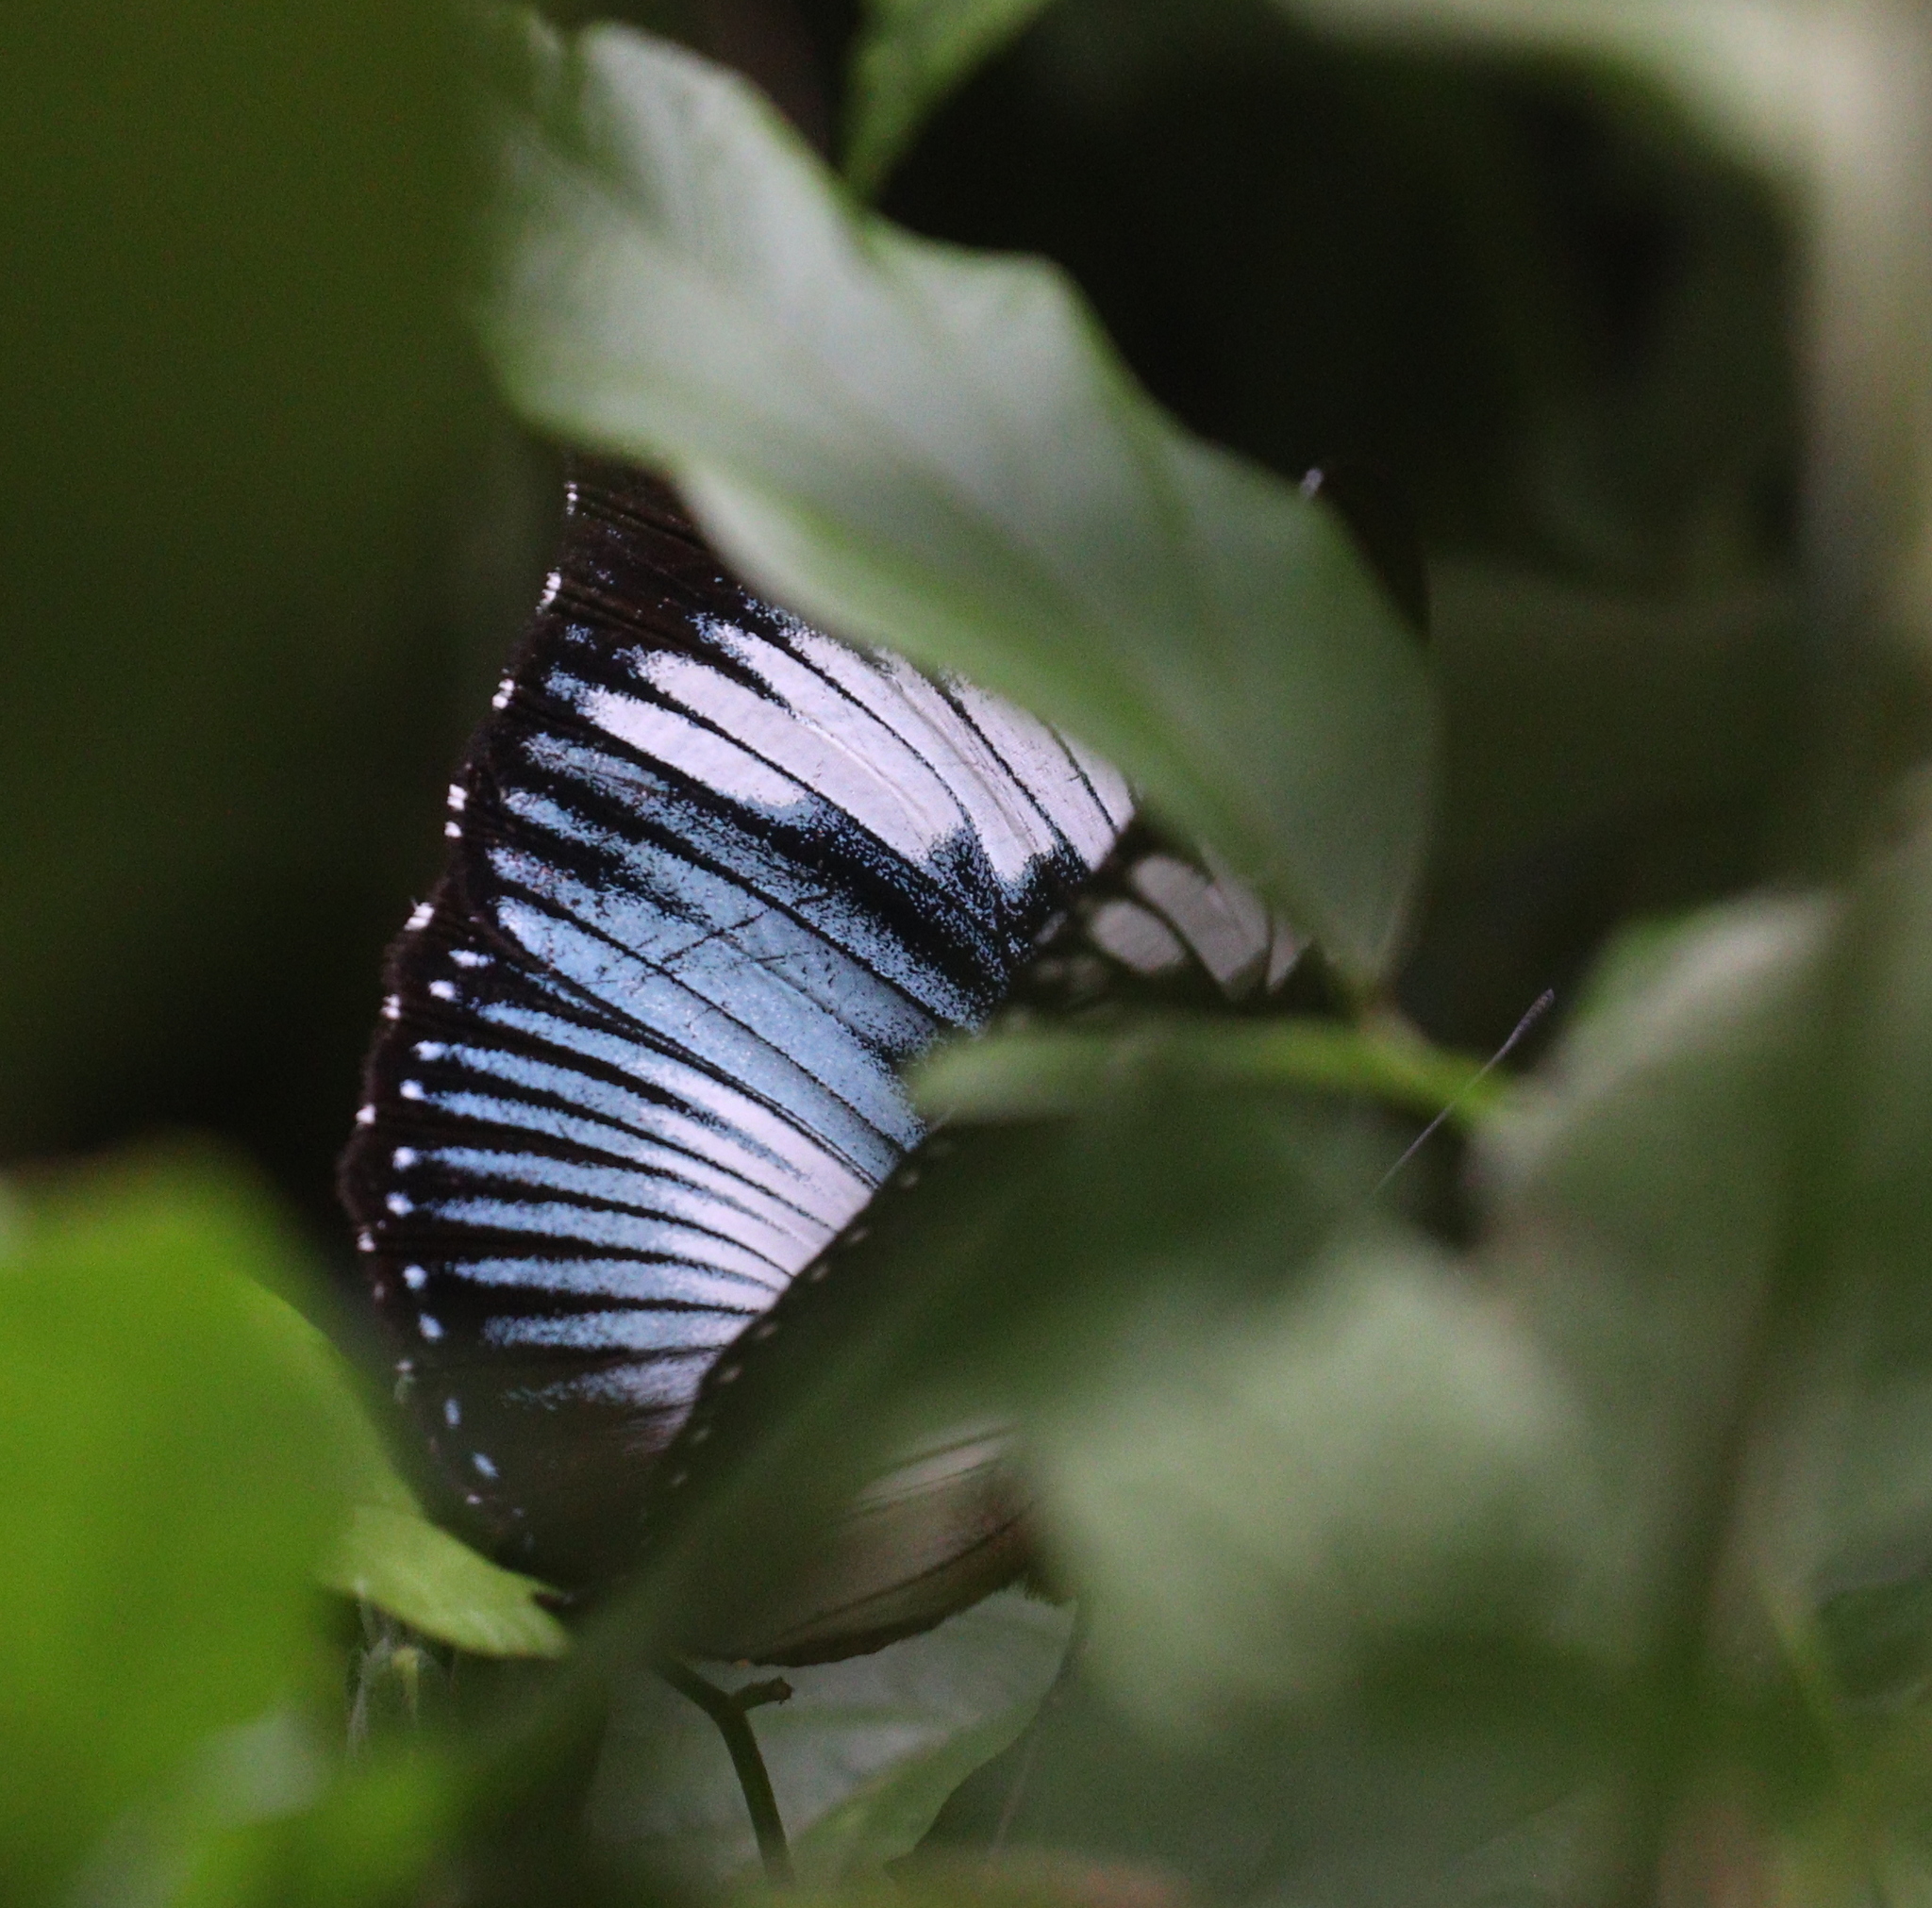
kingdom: Animalia
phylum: Arthropoda
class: Insecta
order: Lepidoptera
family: Nymphalidae
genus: Hypolimnas
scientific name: Hypolimnas monteironis
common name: Scarce blue diadem
